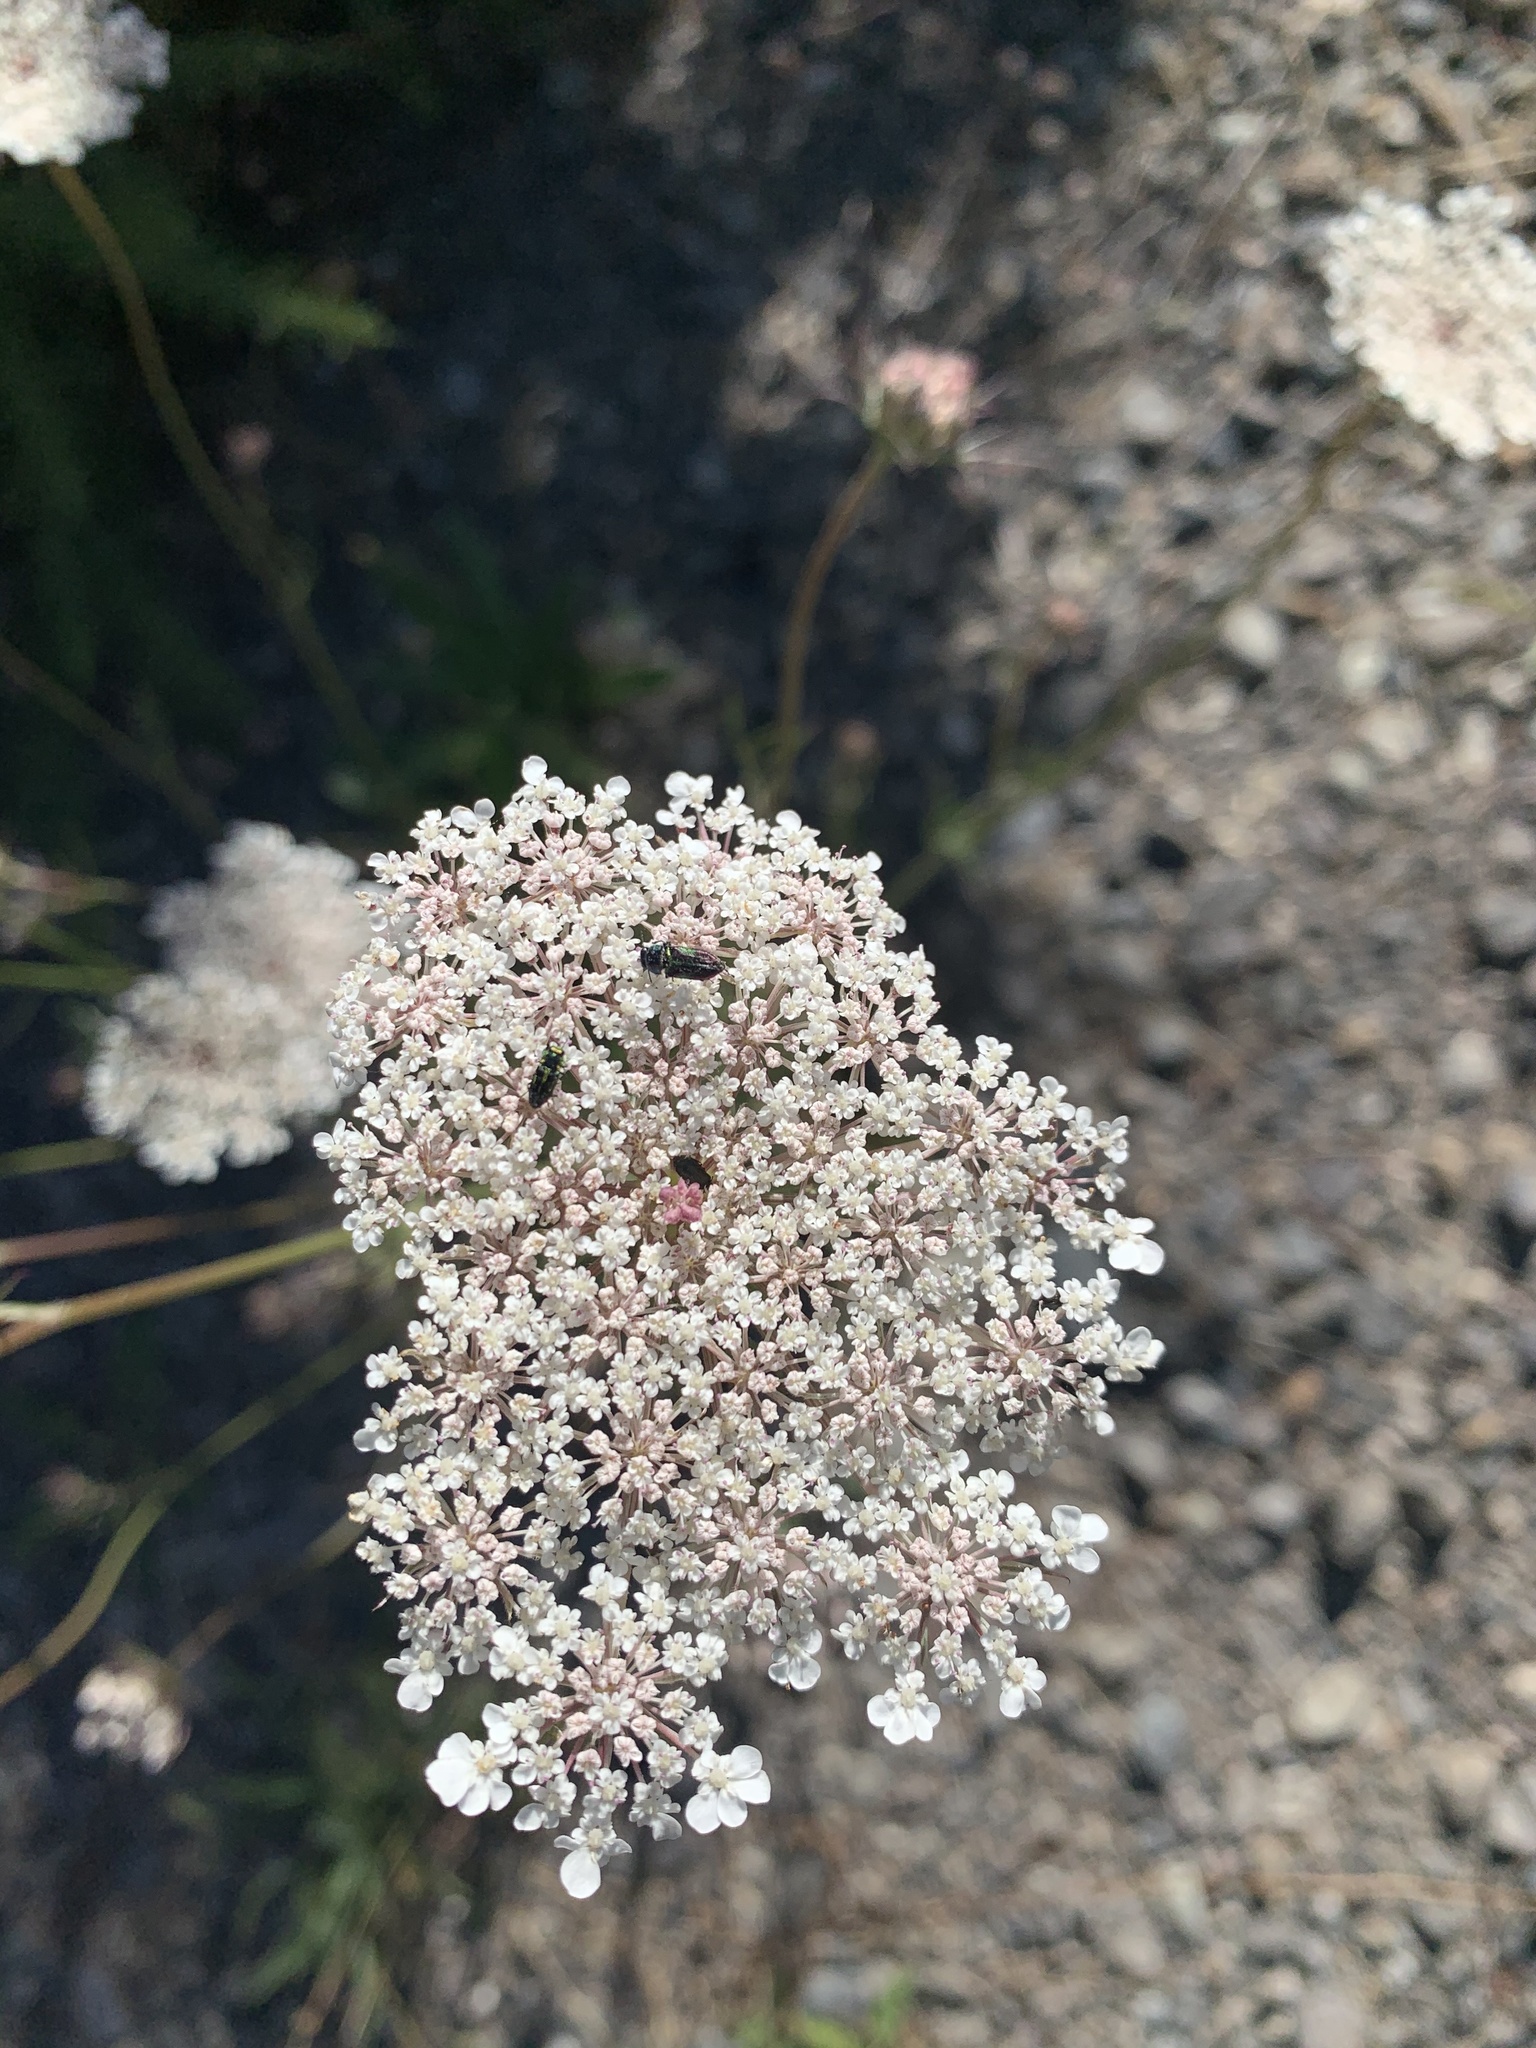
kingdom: Animalia
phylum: Arthropoda
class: Insecta
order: Coleoptera
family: Buprestidae
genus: Bilyaxia
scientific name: Bilyaxia concinna
